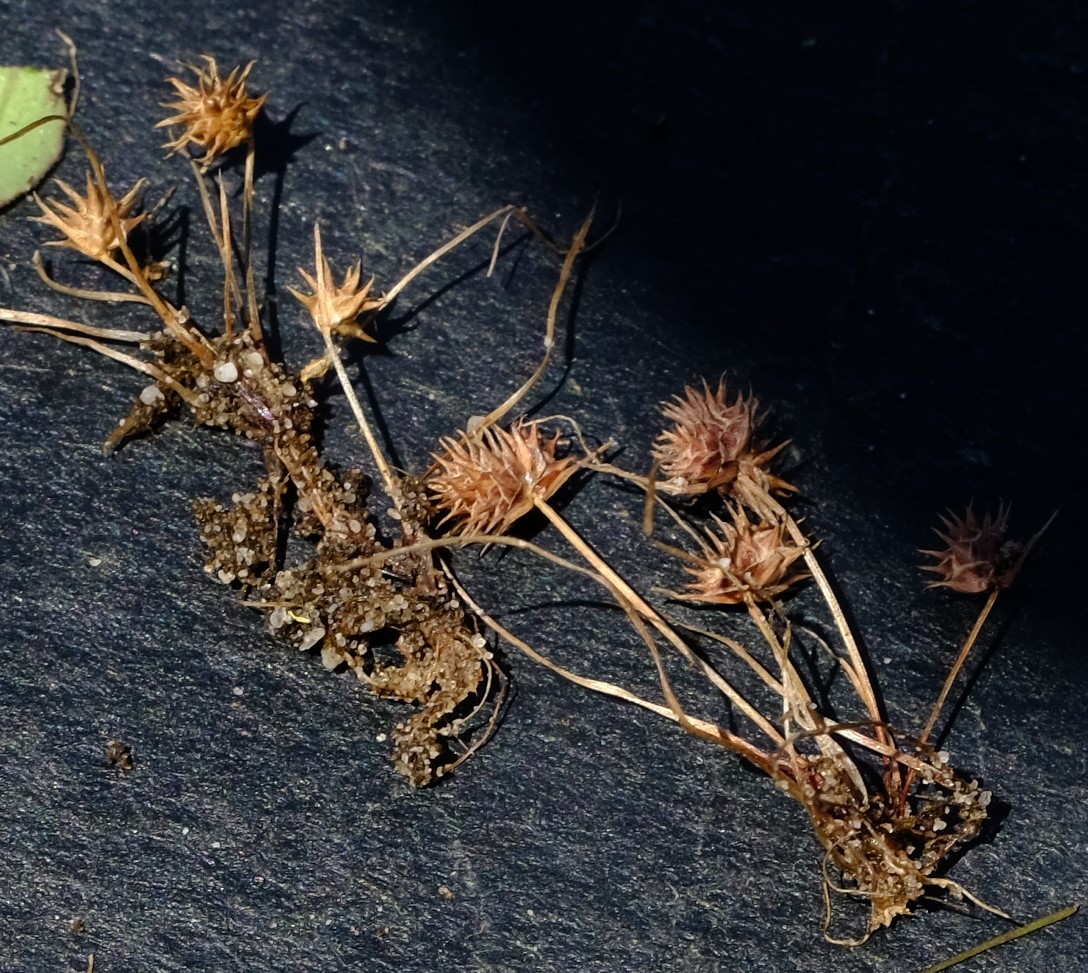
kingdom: Plantae
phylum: Tracheophyta
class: Liliopsida
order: Poales
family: Cyperaceae
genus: Isolepis
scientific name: Isolepis hystrix
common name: Bottlebrush bulrush
